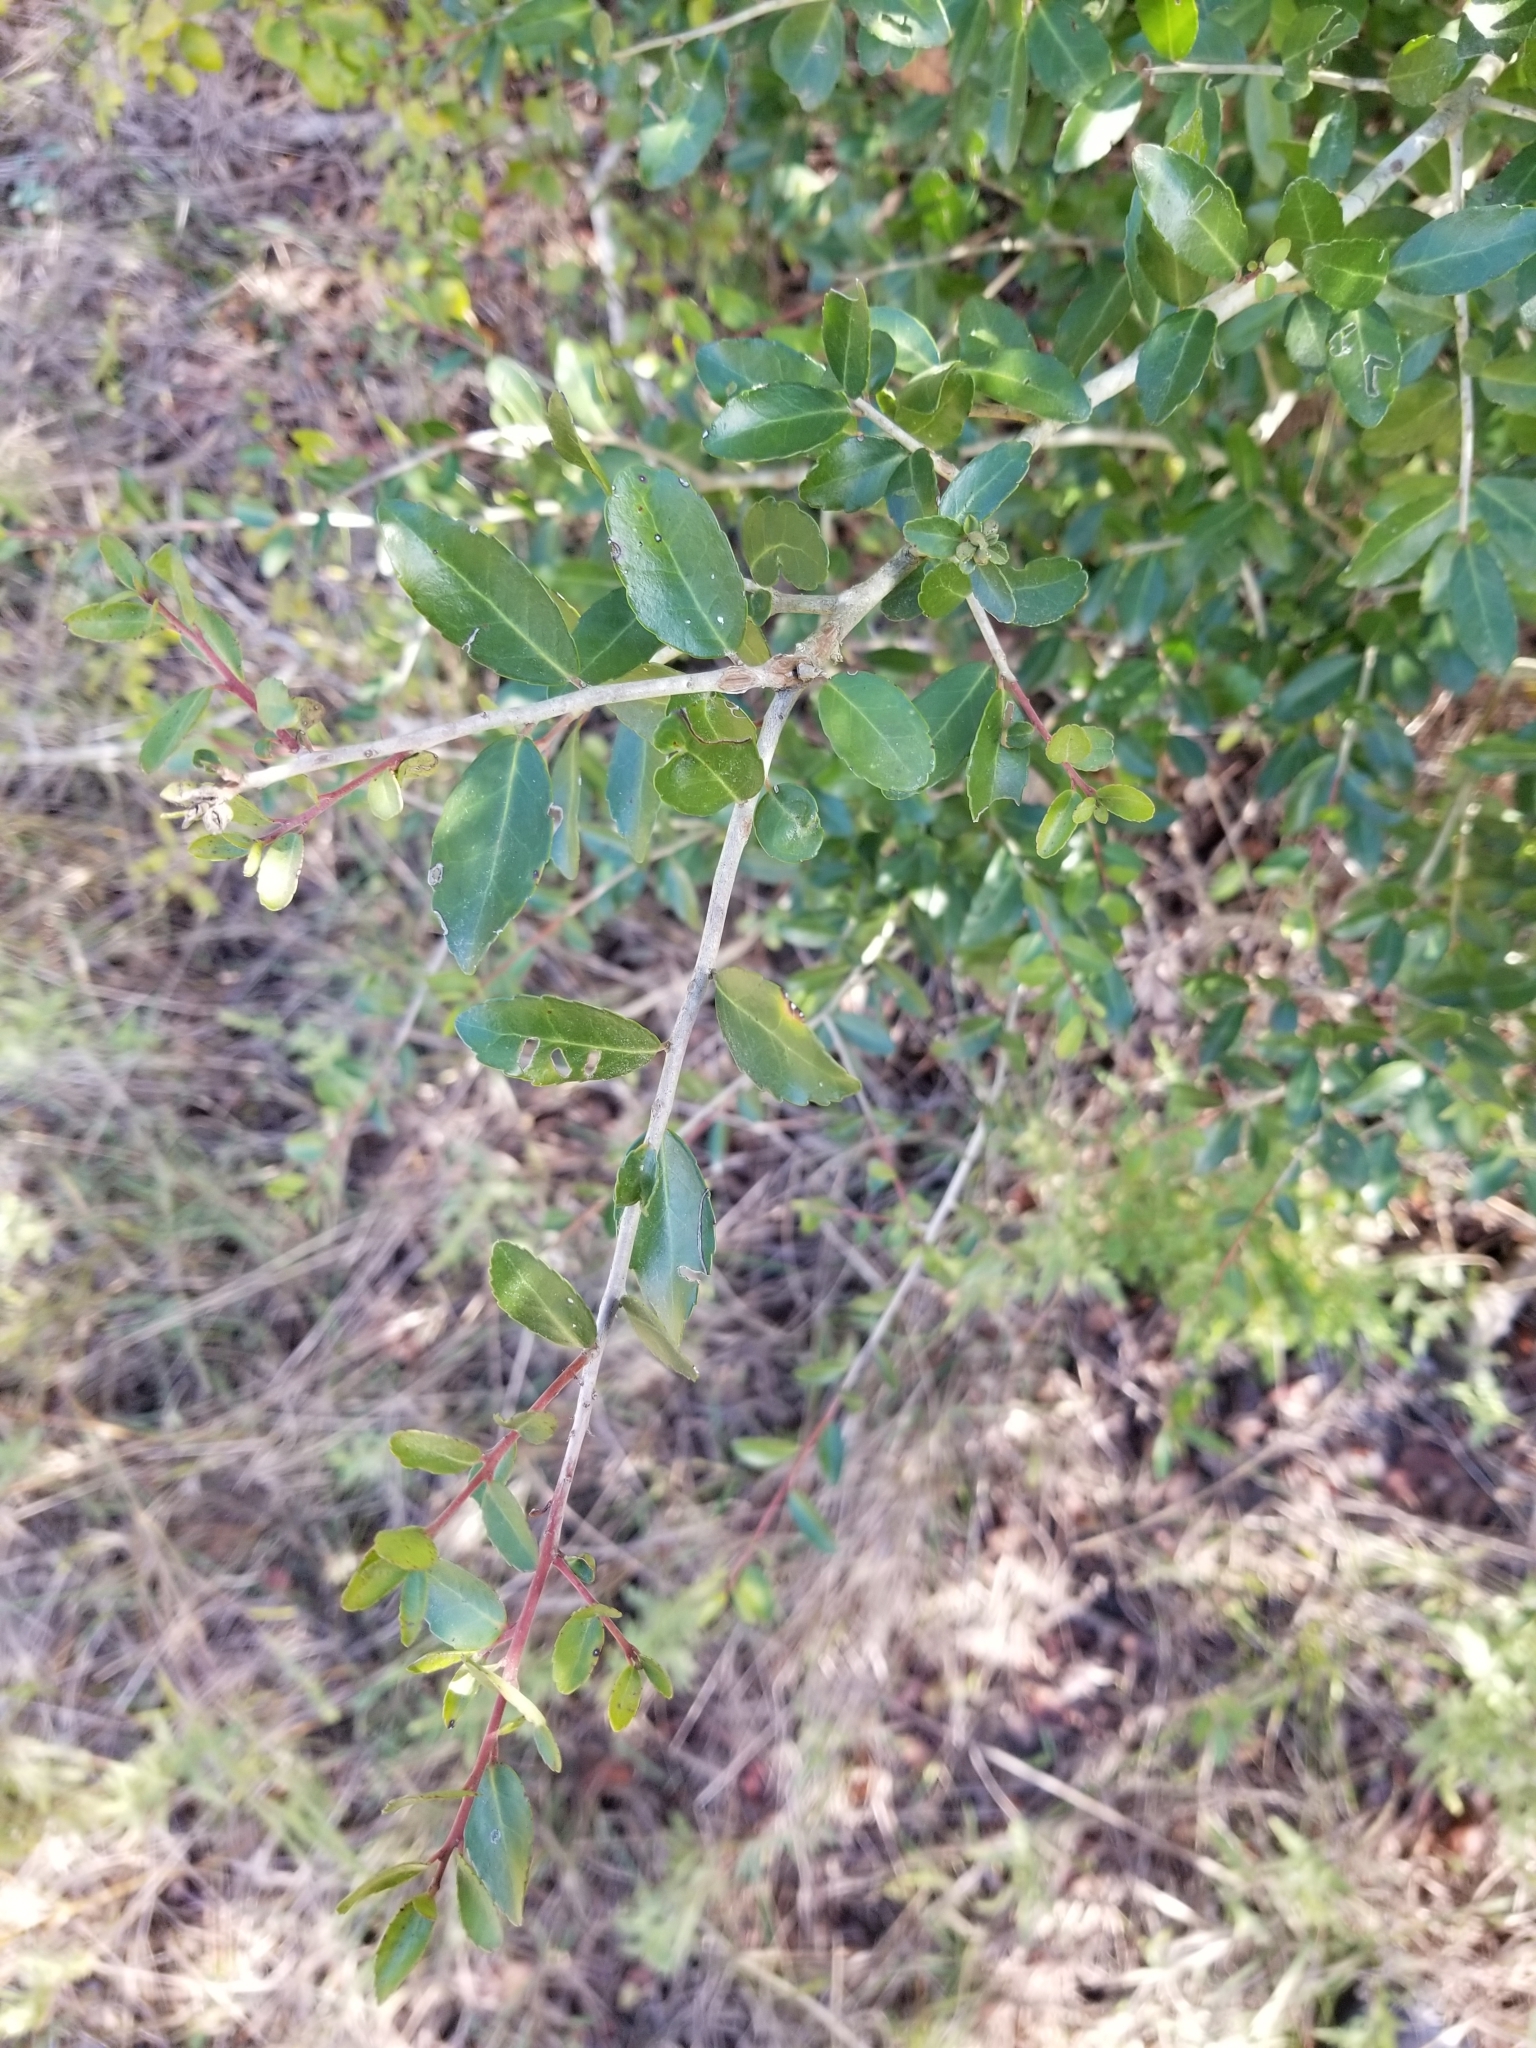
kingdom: Plantae
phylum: Tracheophyta
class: Magnoliopsida
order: Aquifoliales
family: Aquifoliaceae
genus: Ilex
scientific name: Ilex vomitoria
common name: Yaupon holly
